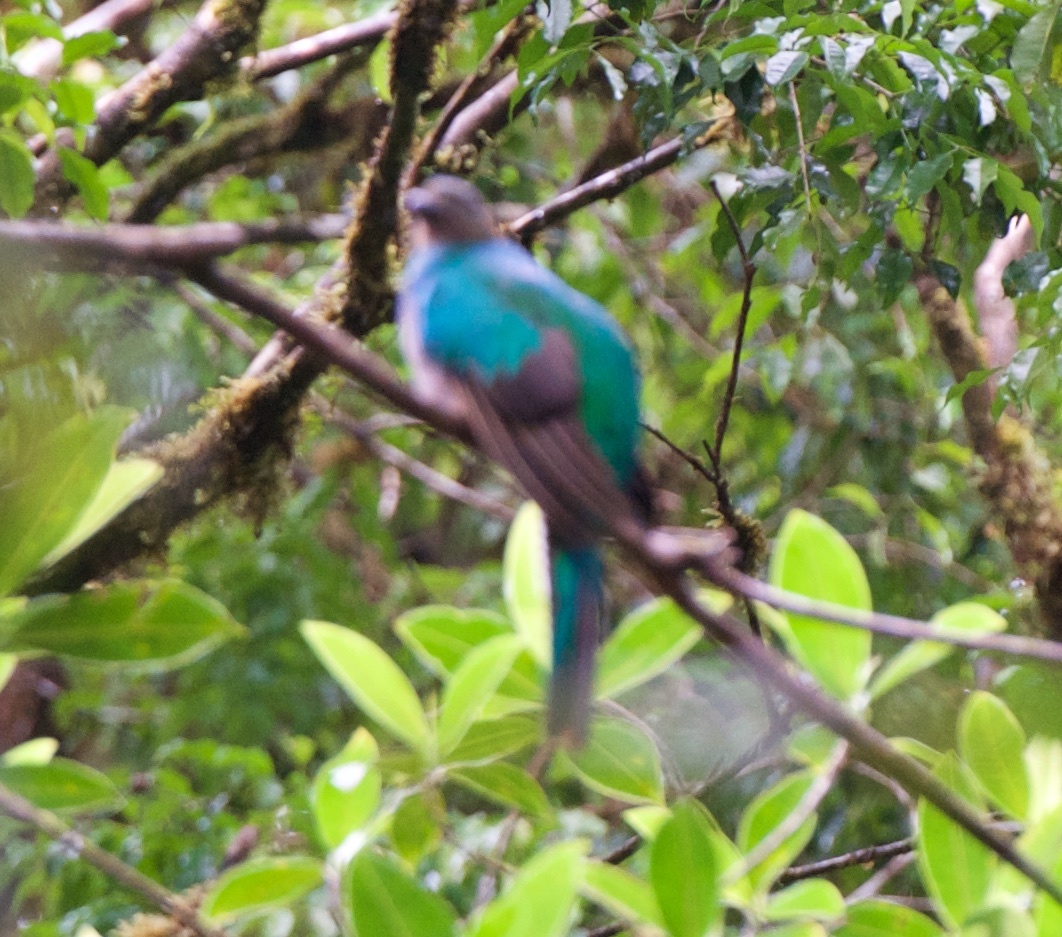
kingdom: Animalia
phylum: Chordata
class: Aves
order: Trogoniformes
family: Trogonidae
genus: Pharomachrus
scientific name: Pharomachrus mocinno
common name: Resplendent quetzal
